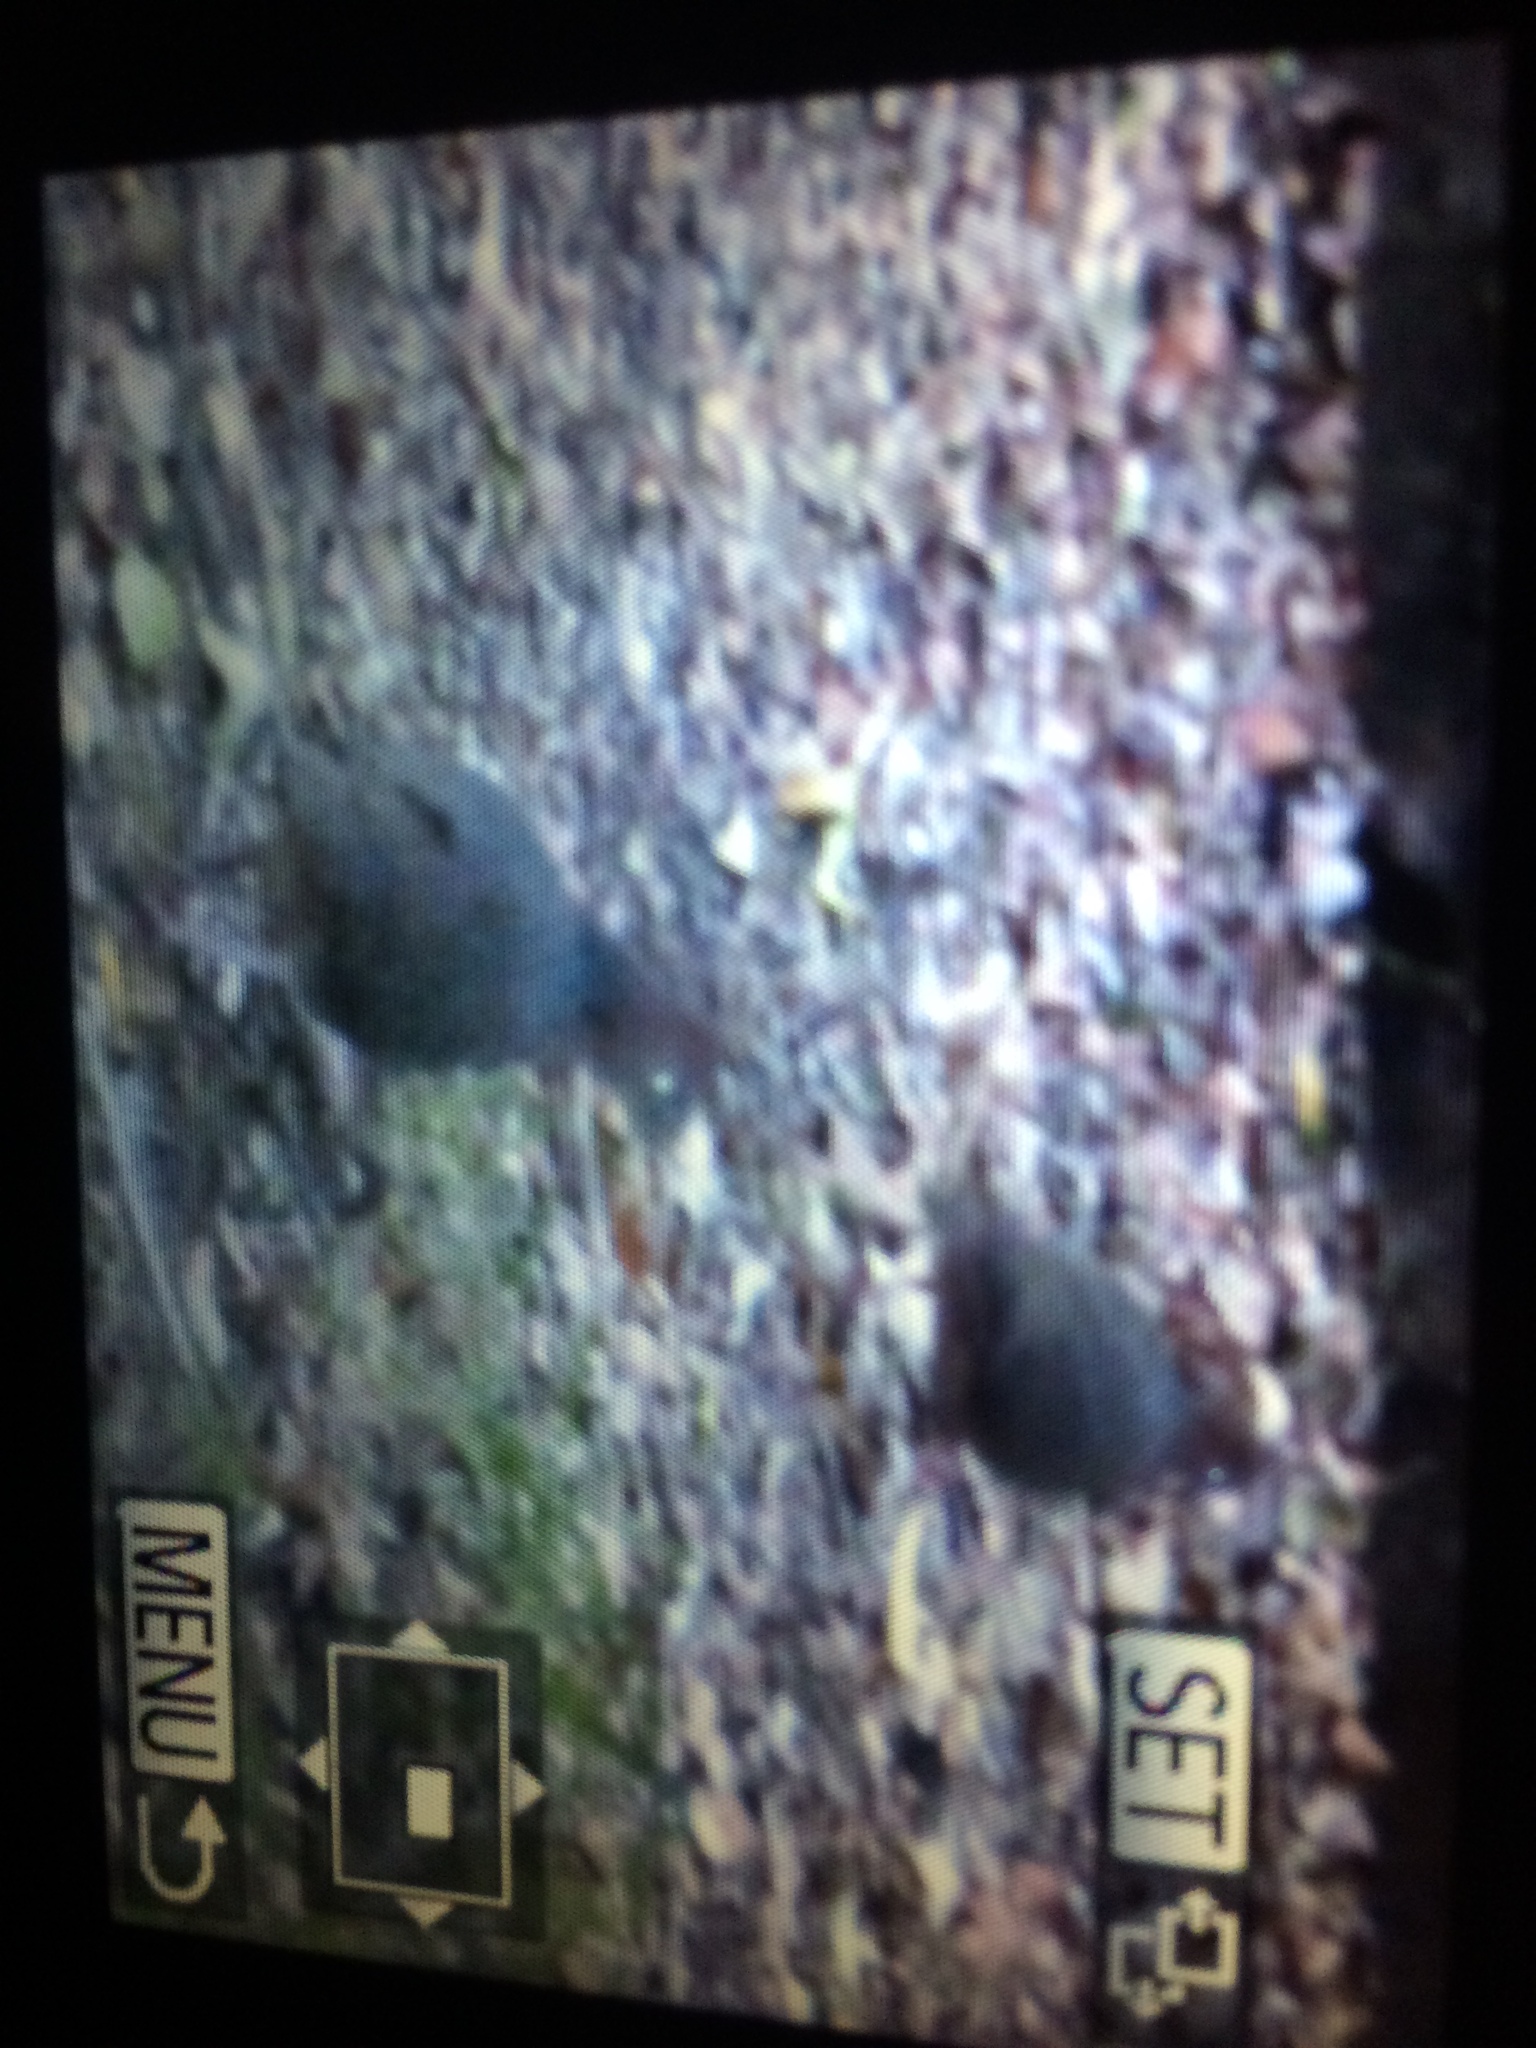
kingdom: Animalia
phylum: Chordata
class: Aves
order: Columbiformes
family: Columbidae
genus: Columba
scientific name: Columba larvata
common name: Lemon dove
